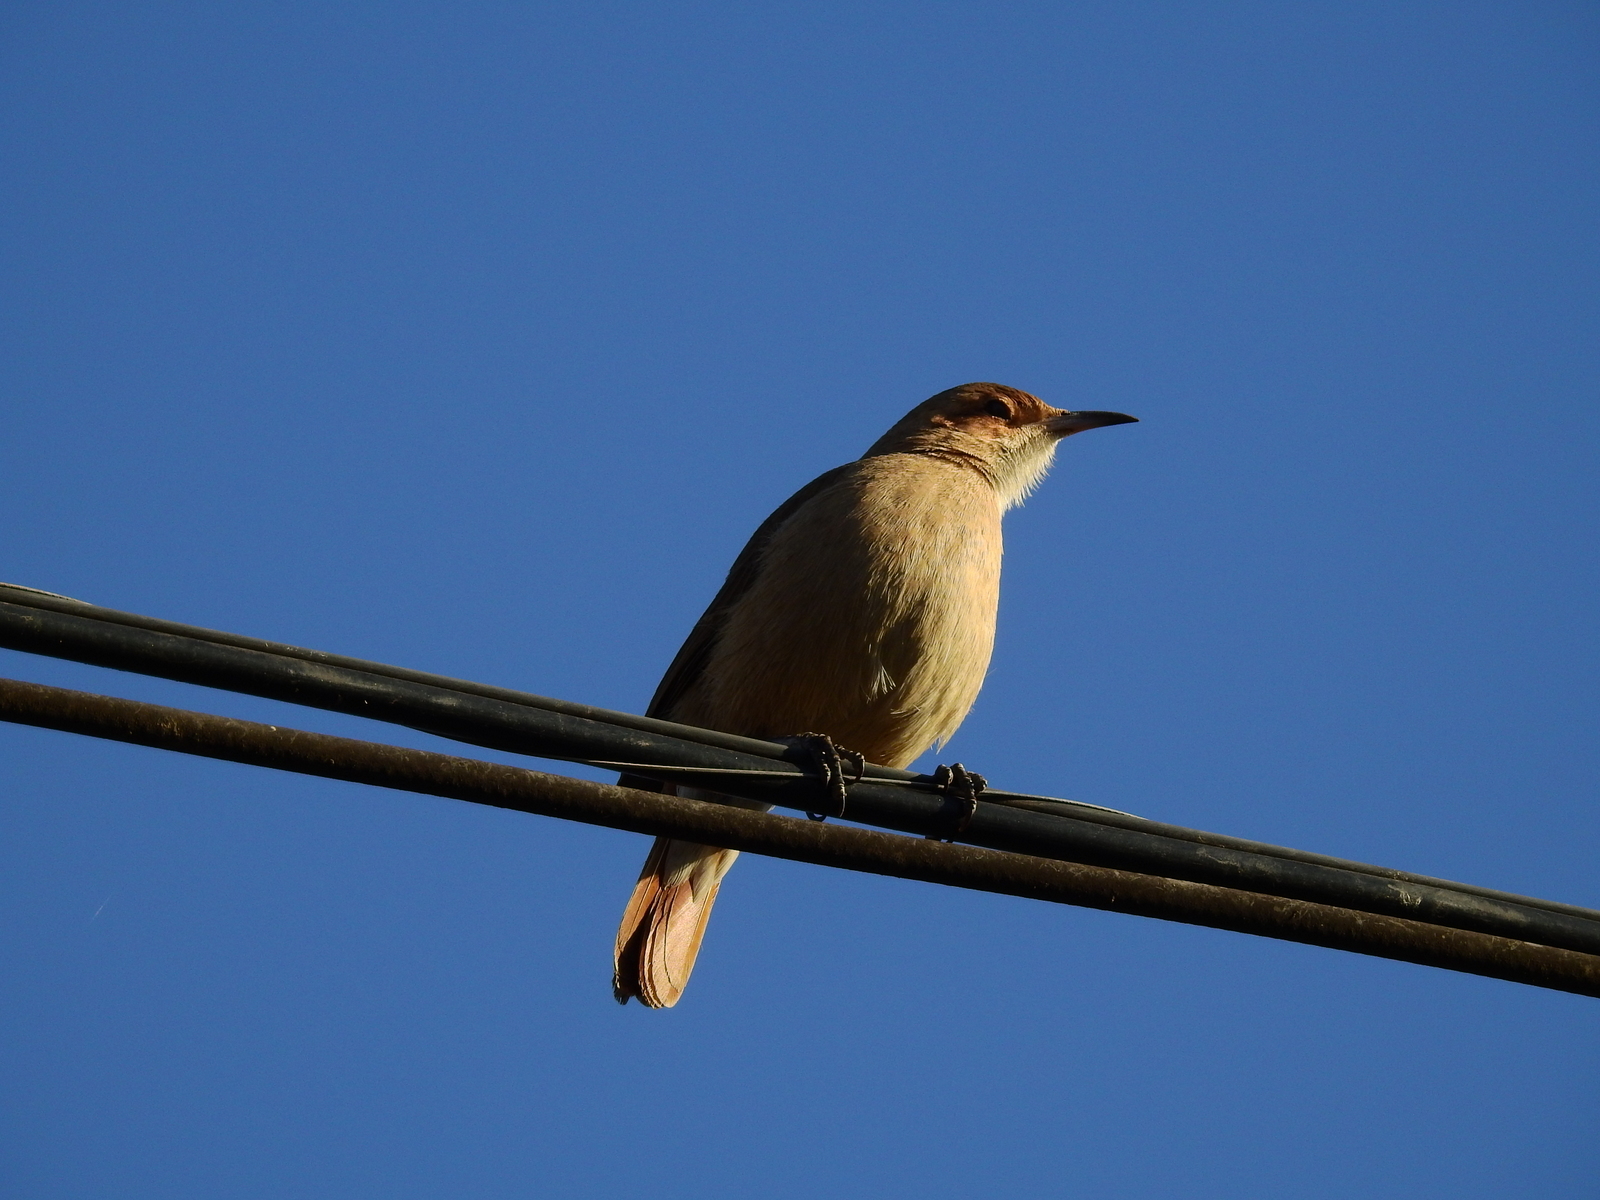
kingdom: Animalia
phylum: Chordata
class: Aves
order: Passeriformes
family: Furnariidae
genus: Furnarius
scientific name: Furnarius rufus
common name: Rufous hornero
